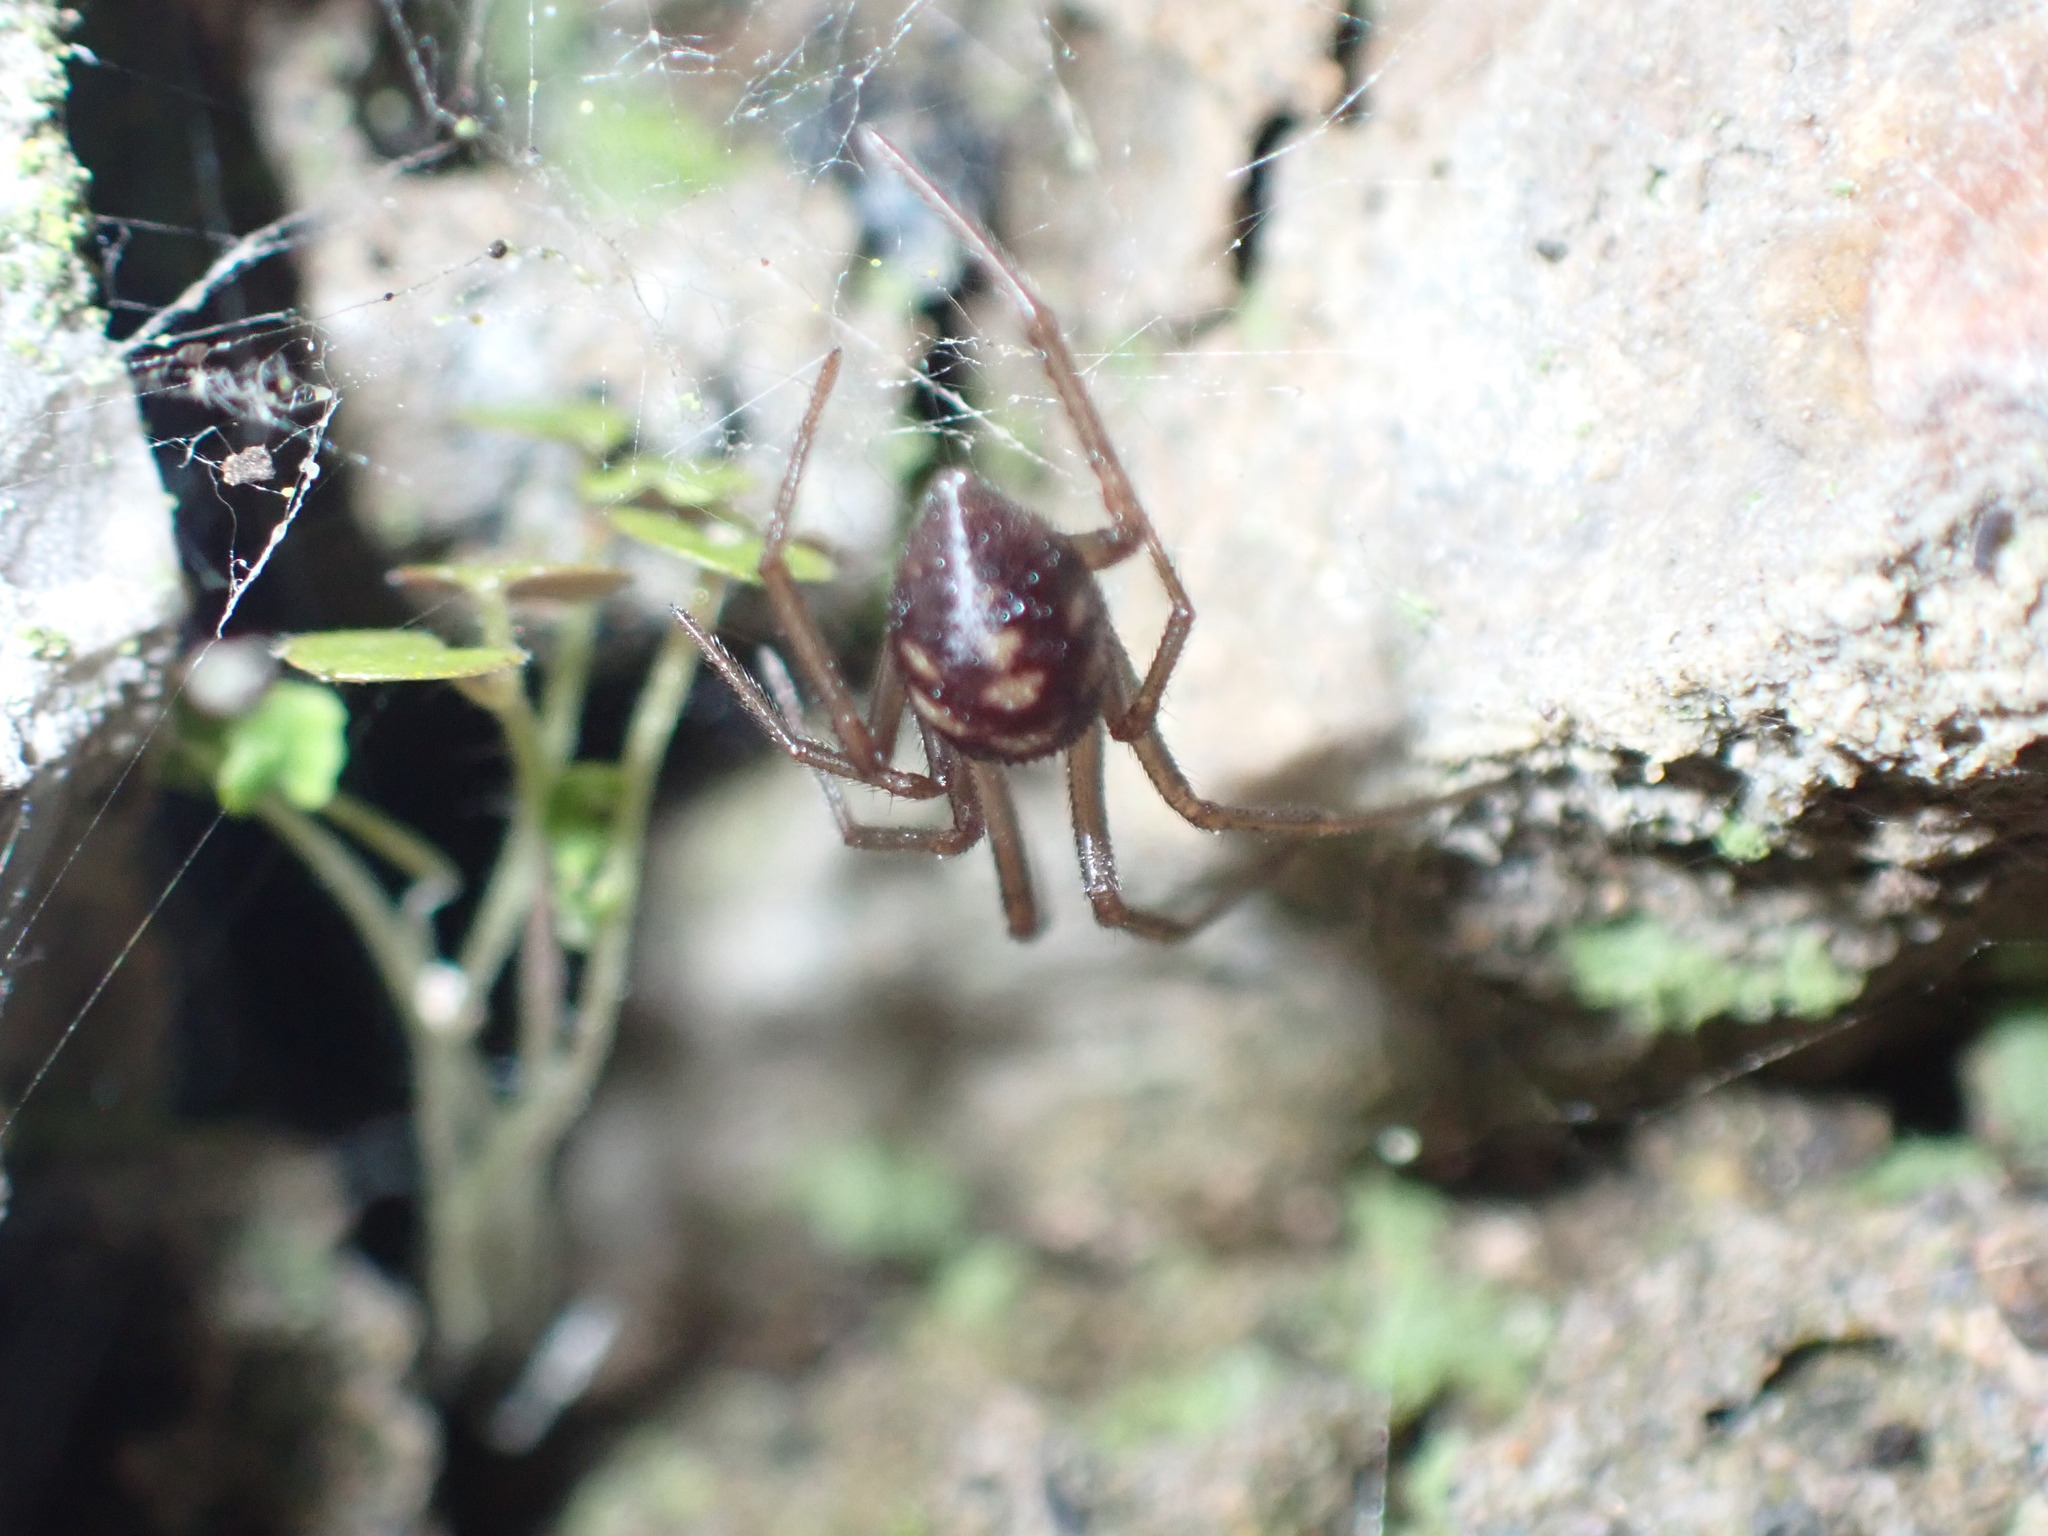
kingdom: Animalia
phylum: Arthropoda
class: Arachnida
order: Araneae
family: Theridiidae
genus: Steatoda
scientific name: Steatoda grossa
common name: False black widow
